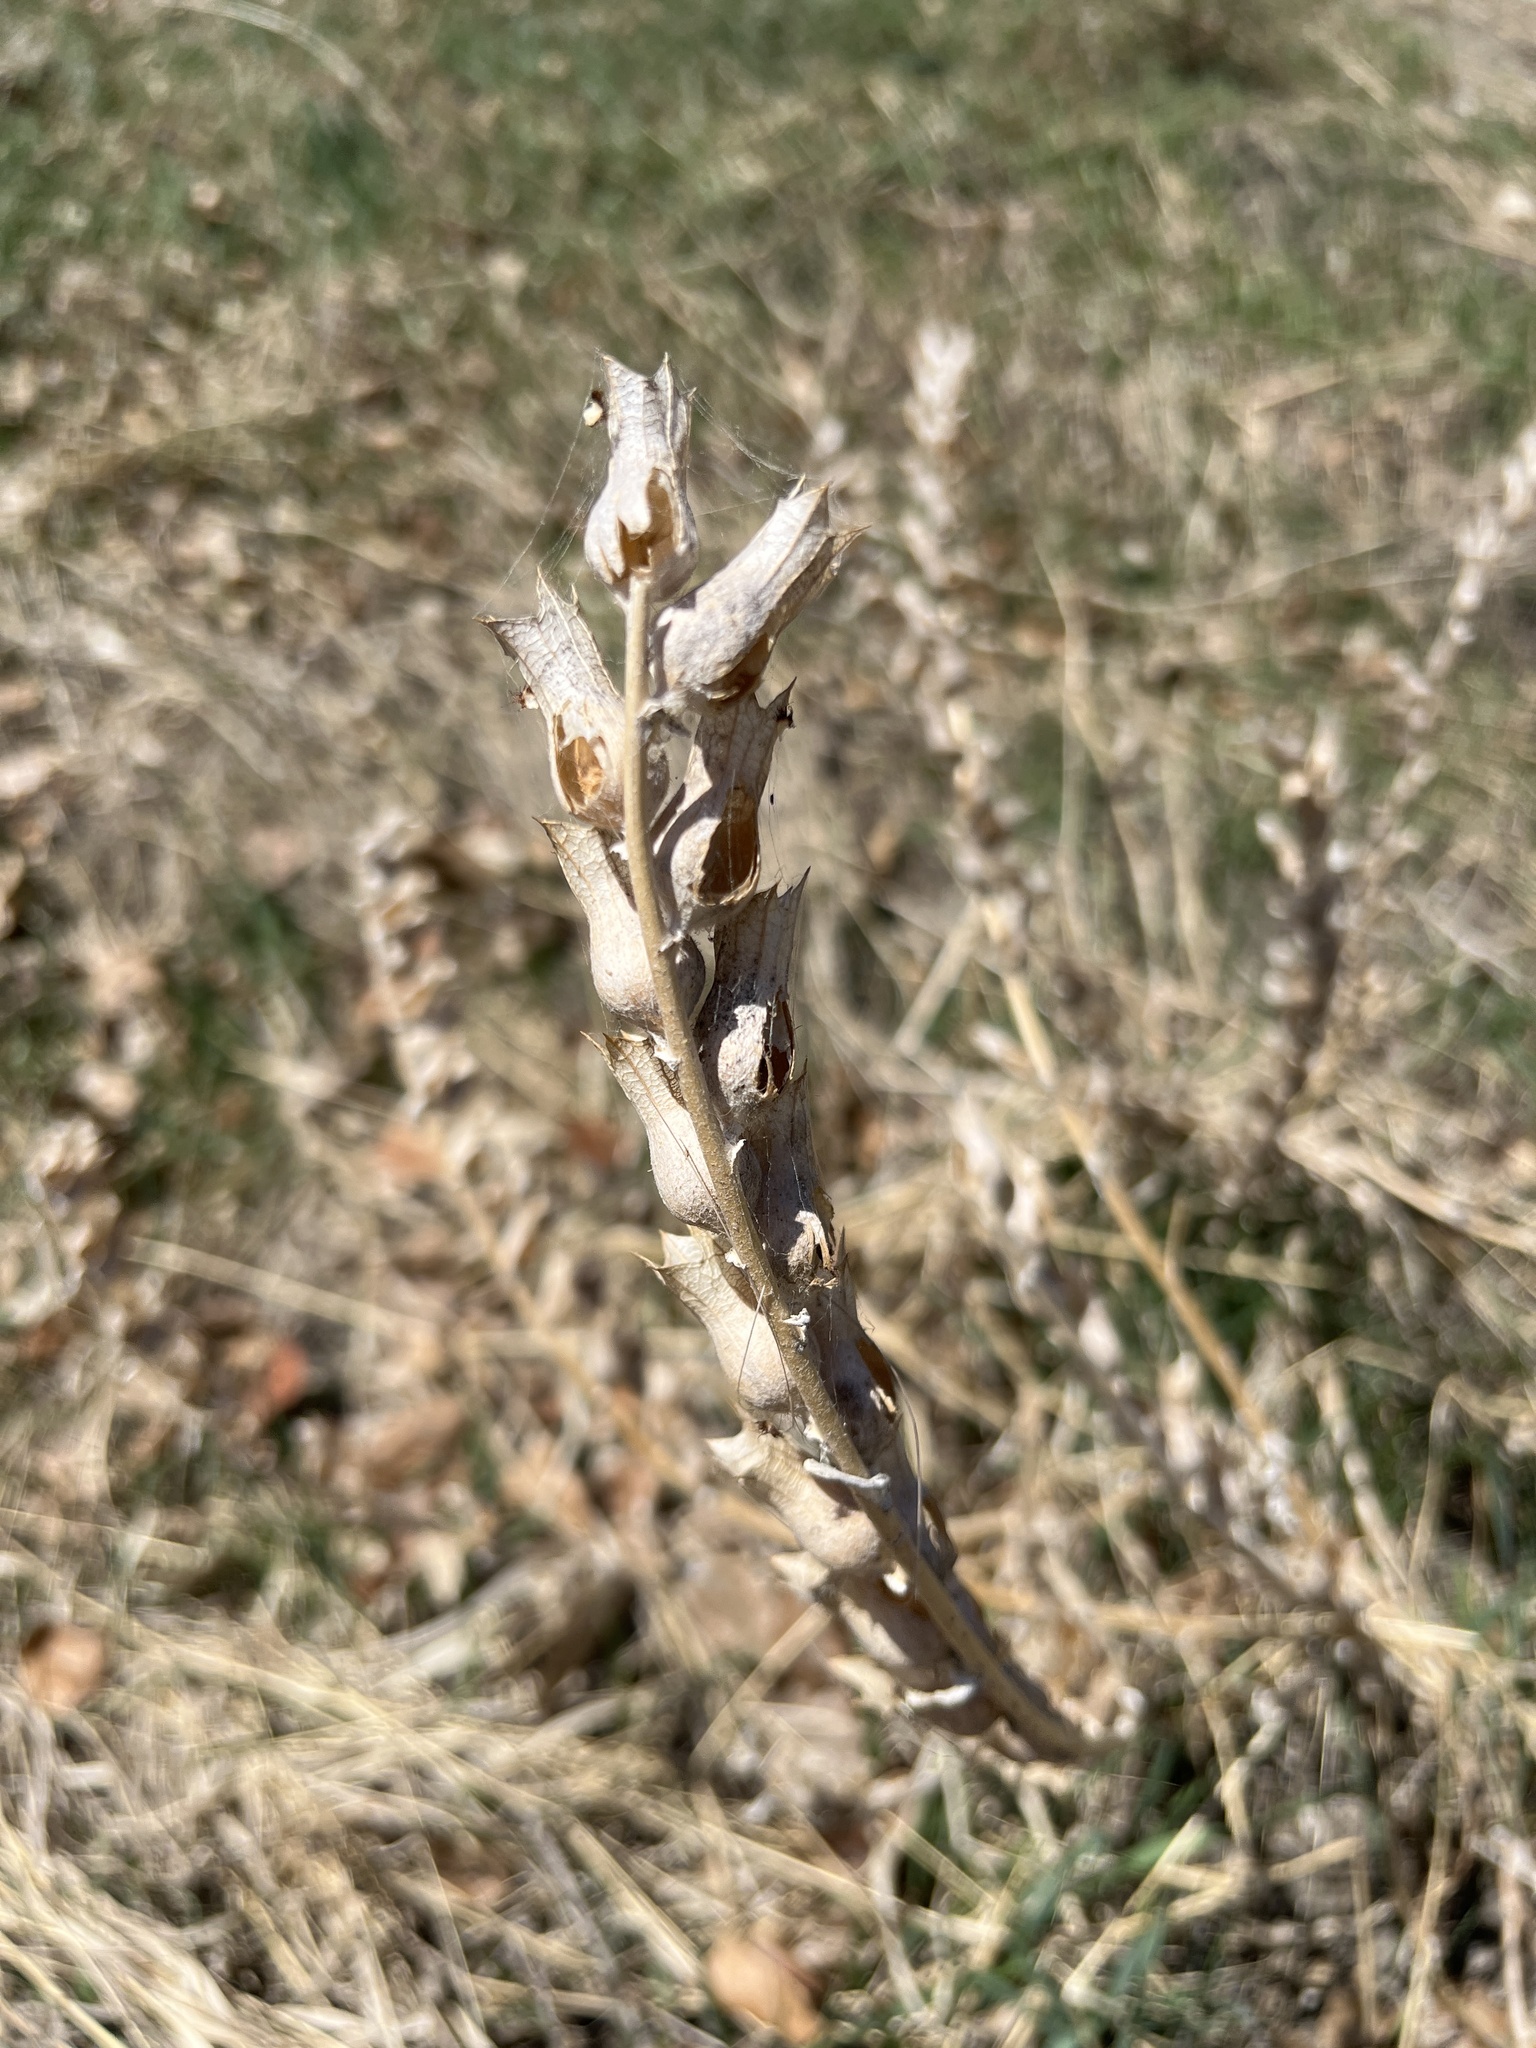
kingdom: Plantae
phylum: Tracheophyta
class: Magnoliopsida
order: Solanales
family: Solanaceae
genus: Hyoscyamus
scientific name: Hyoscyamus niger
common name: Henbane
